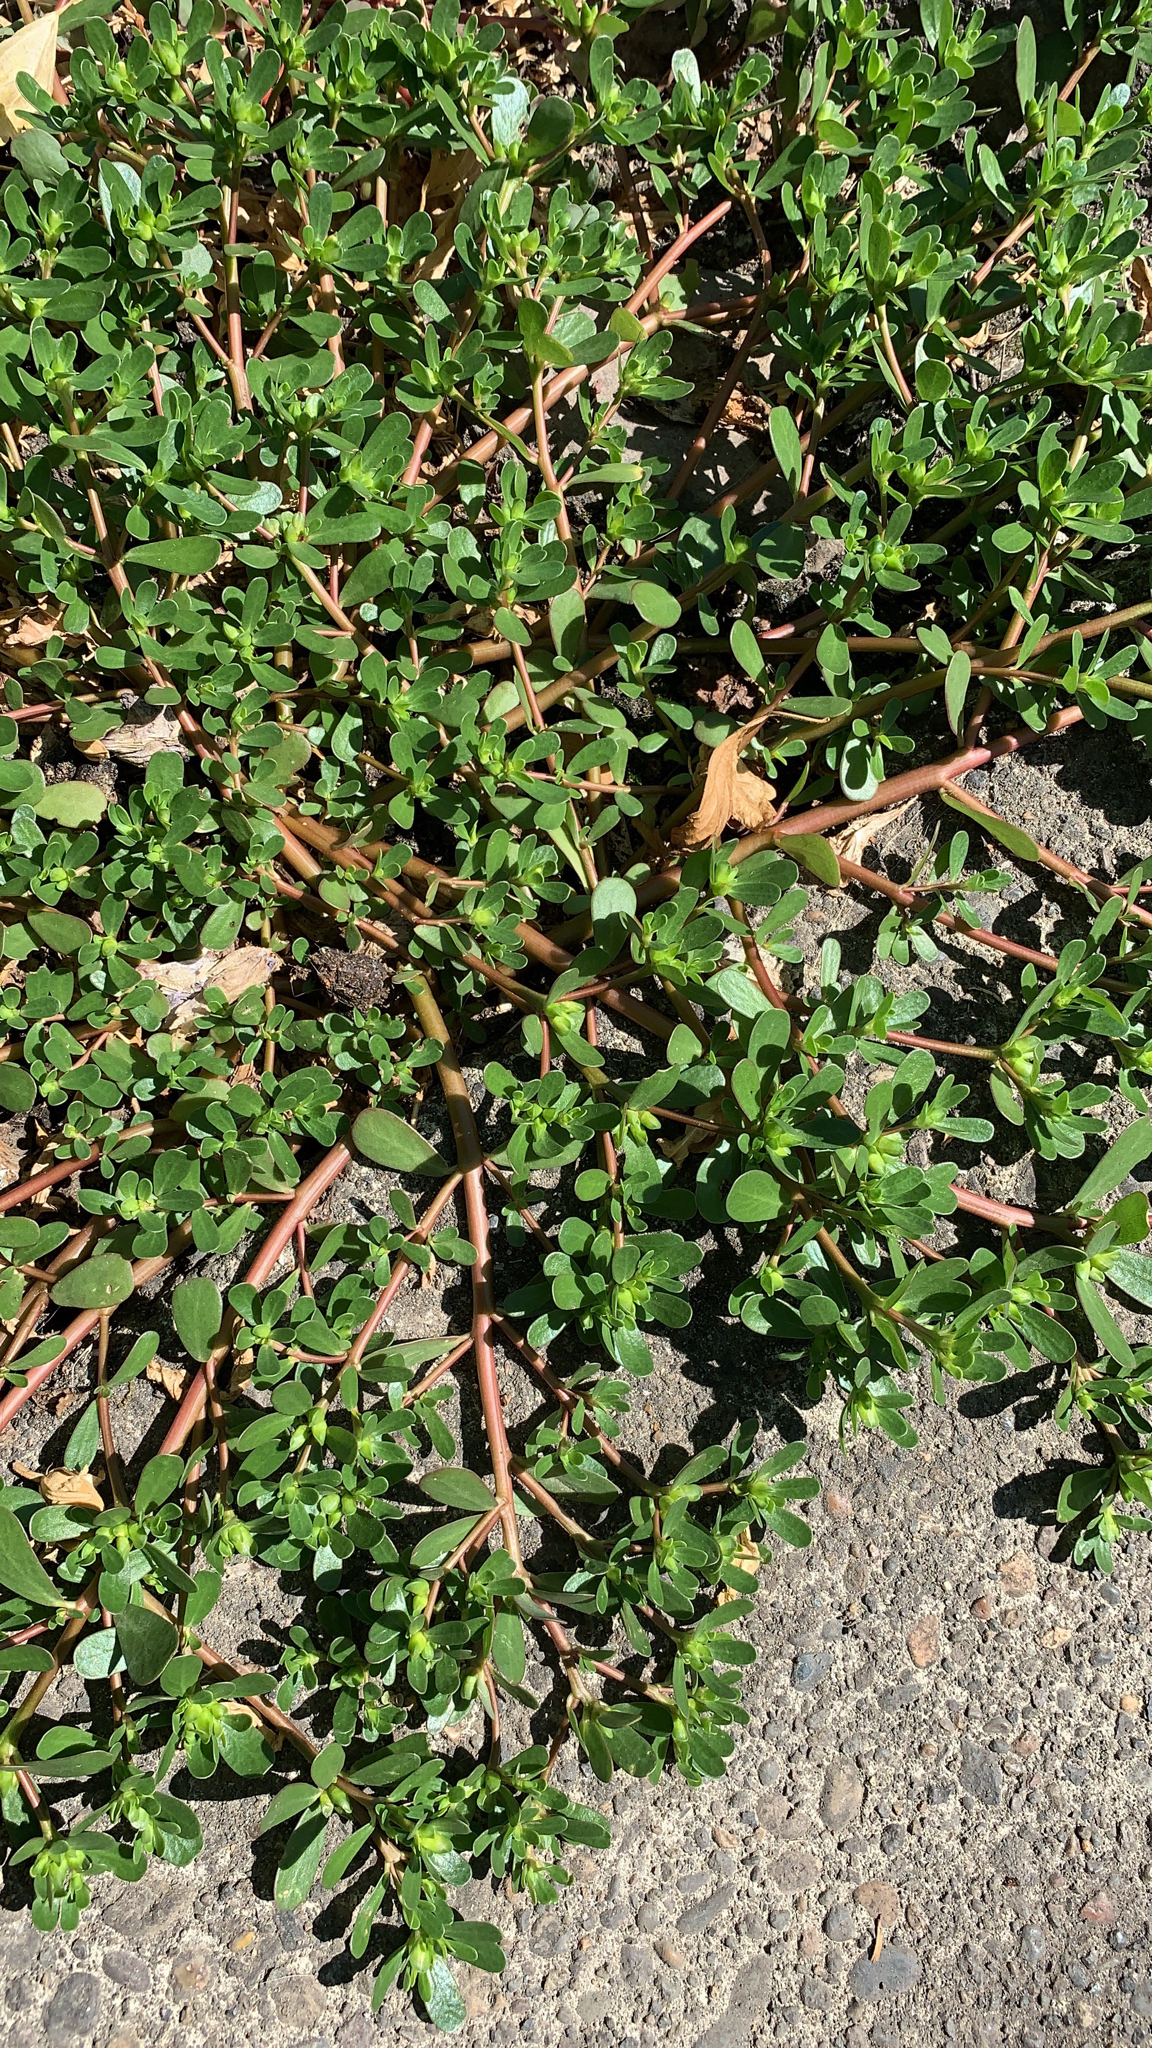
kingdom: Plantae
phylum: Tracheophyta
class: Magnoliopsida
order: Caryophyllales
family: Portulacaceae
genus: Portulaca
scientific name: Portulaca oleracea
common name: Common purslane
